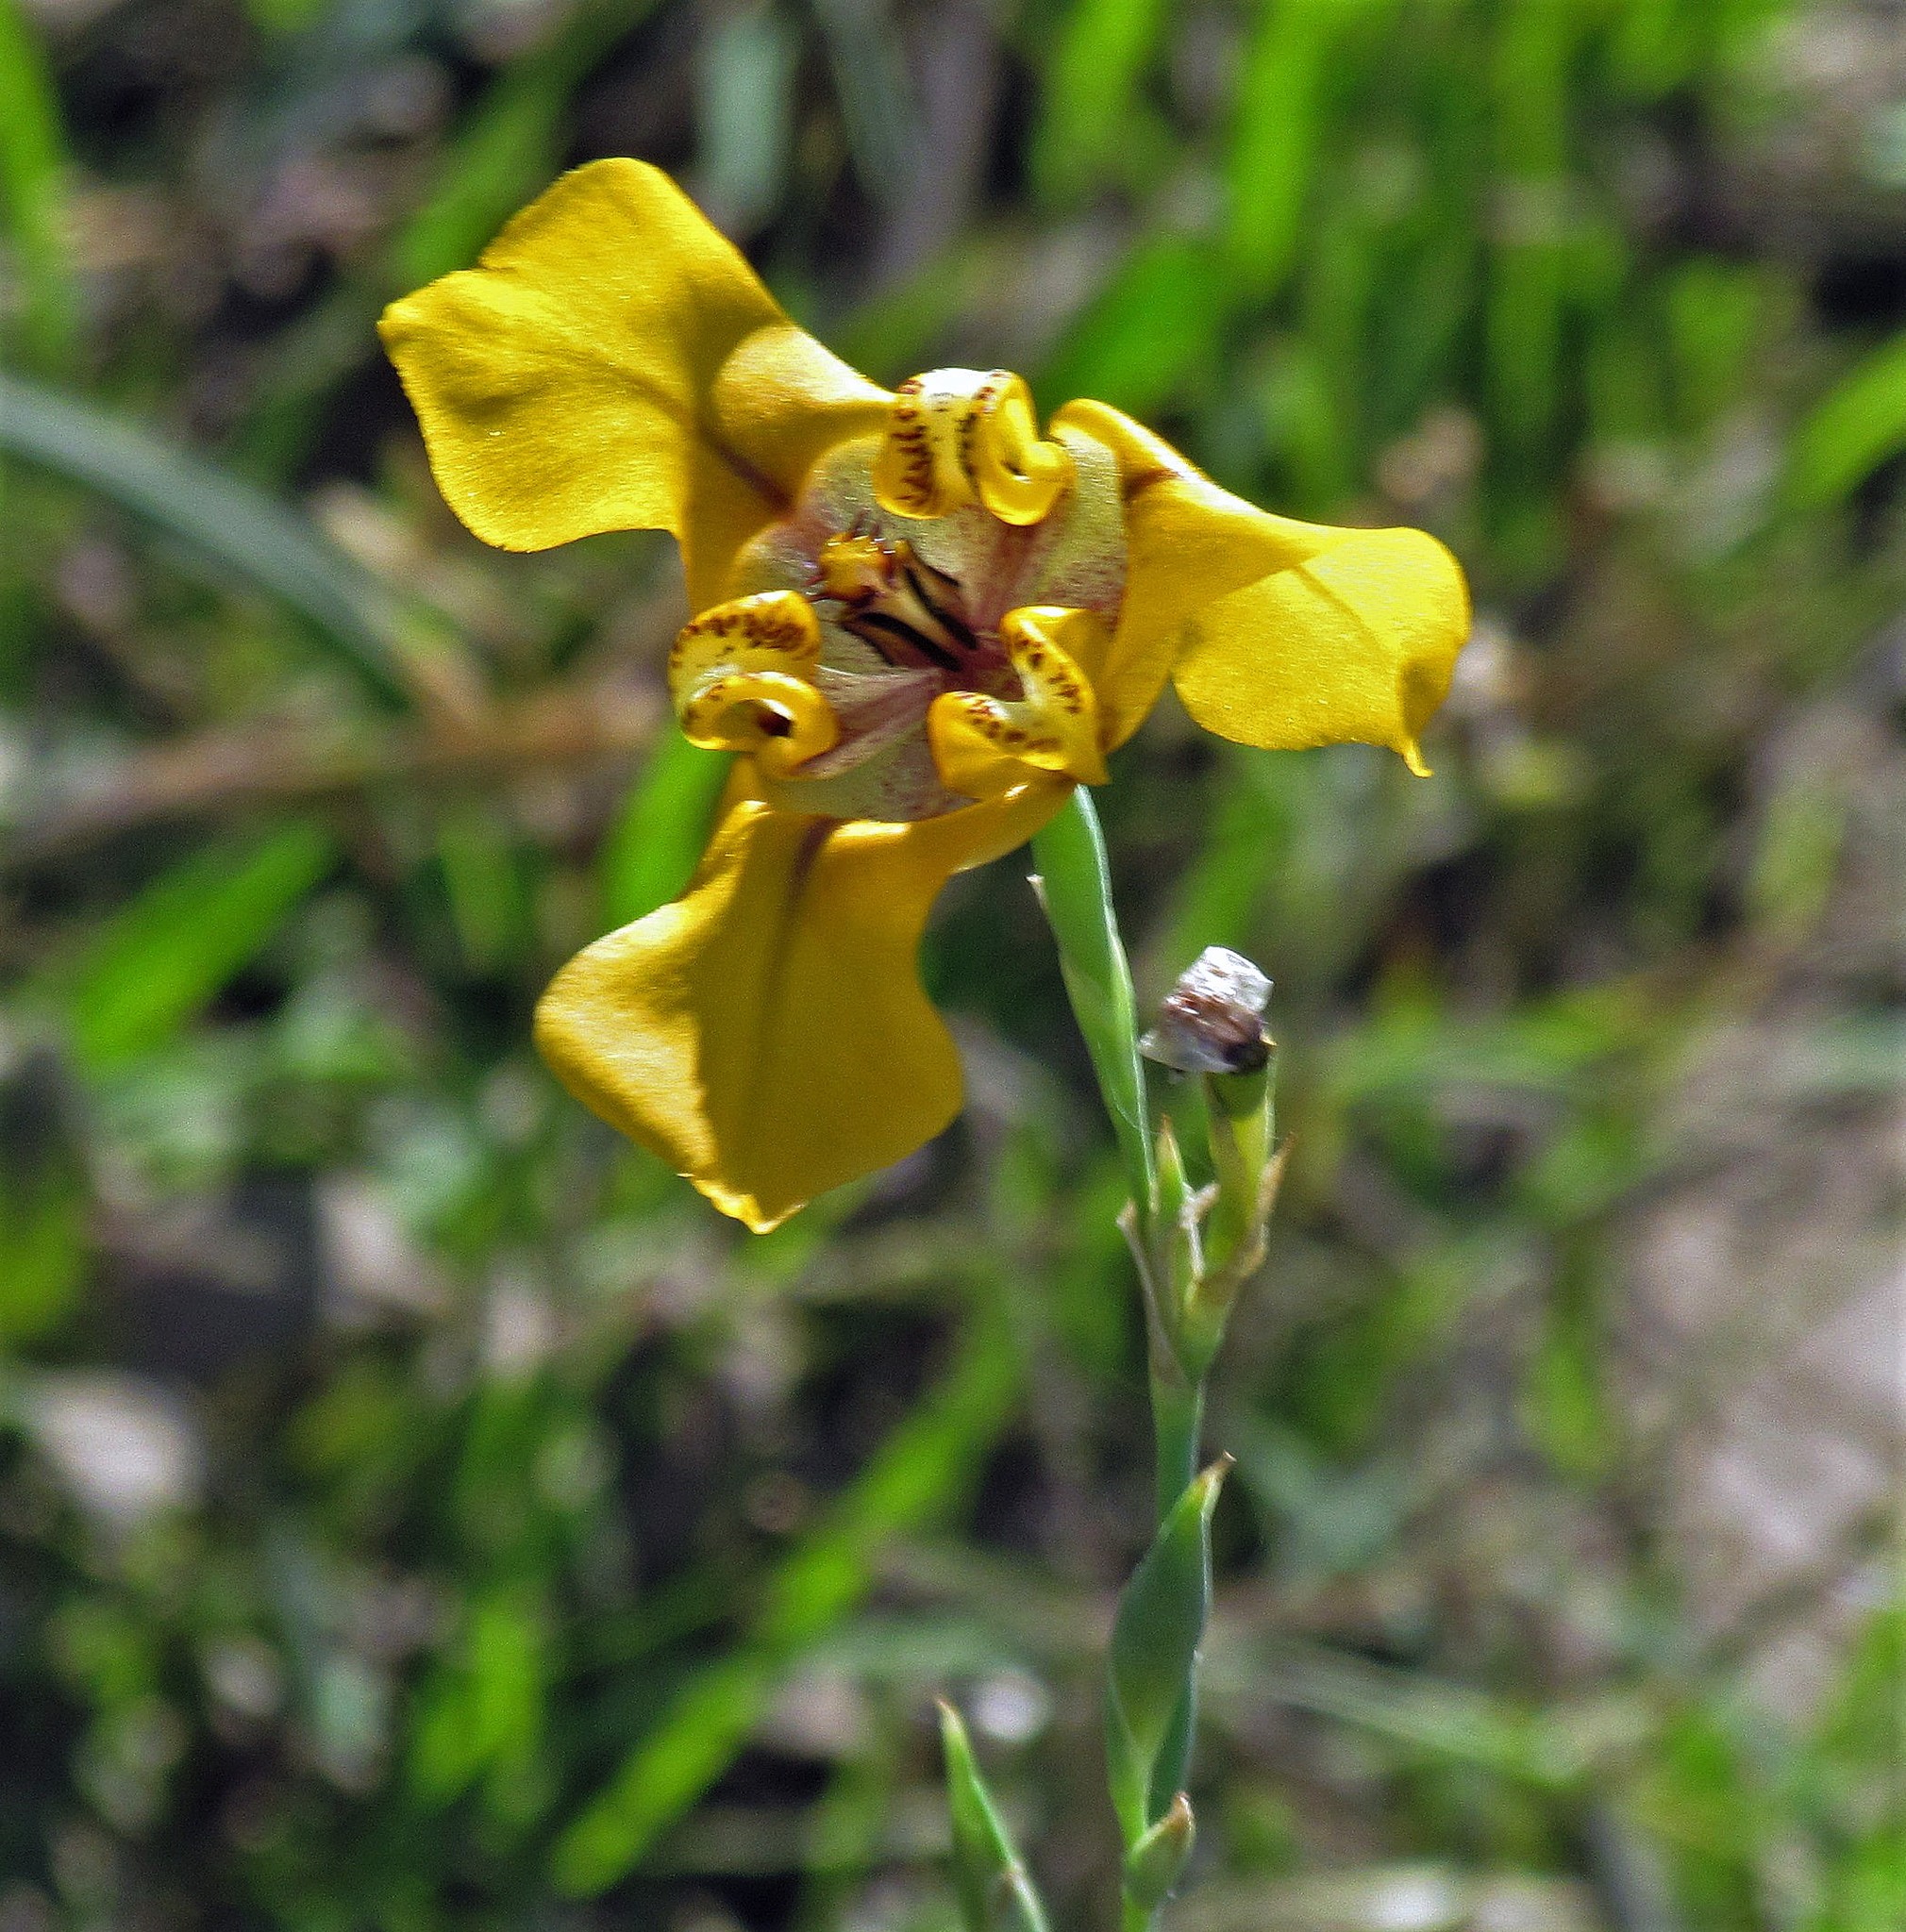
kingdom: Plantae
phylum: Tracheophyta
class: Liliopsida
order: Asparagales
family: Iridaceae
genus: Cypella
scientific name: Cypella herbertii
